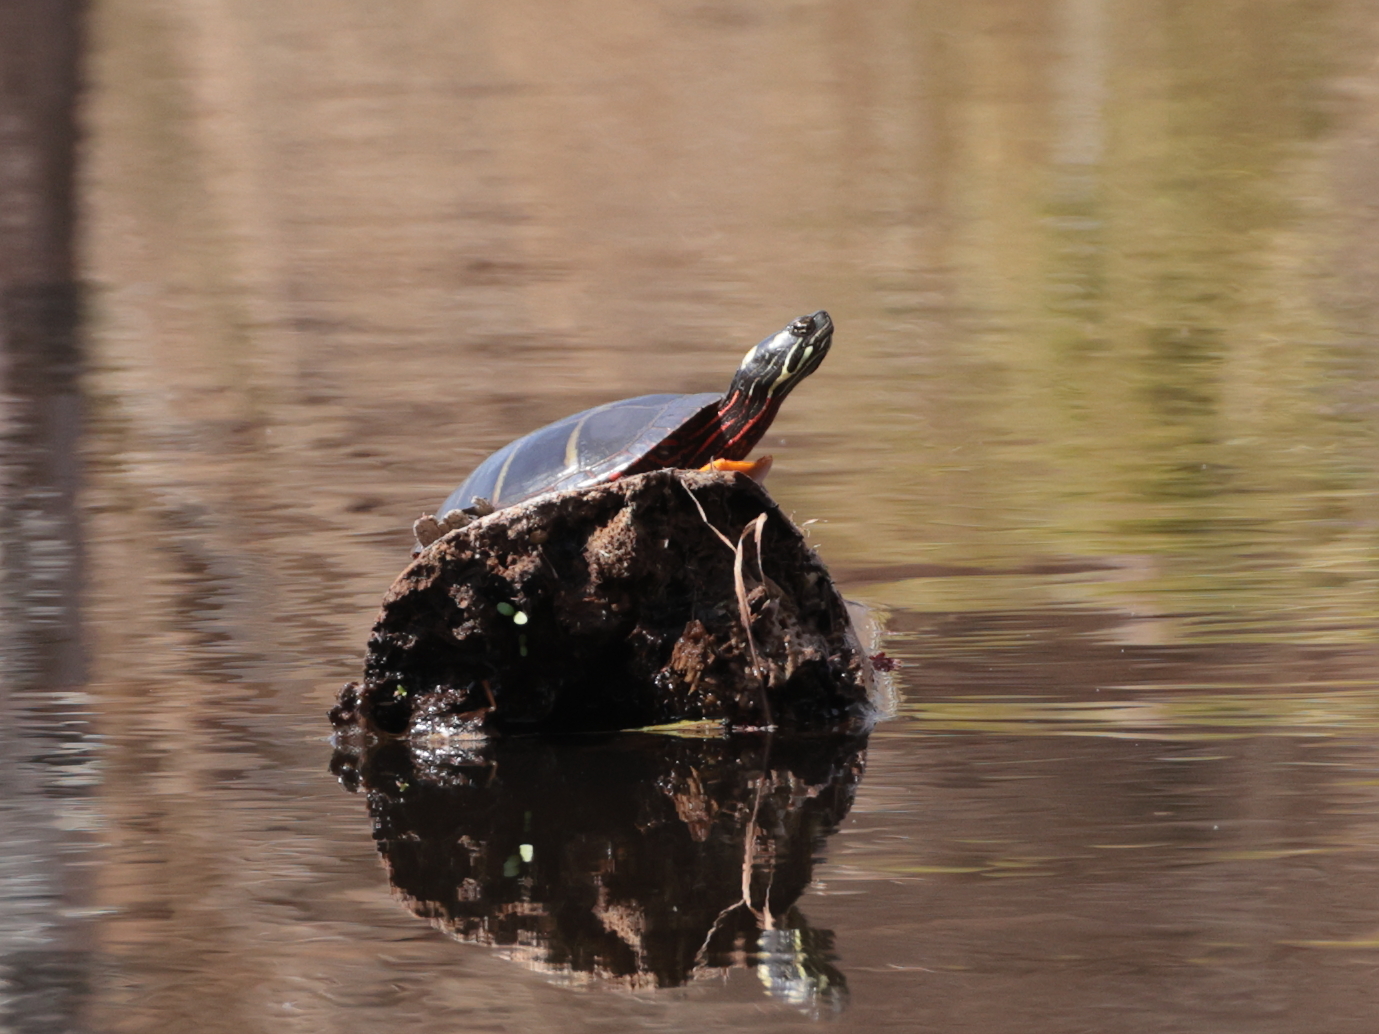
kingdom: Animalia
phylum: Chordata
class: Testudines
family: Emydidae
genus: Chrysemys
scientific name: Chrysemys picta
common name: Painted turtle
